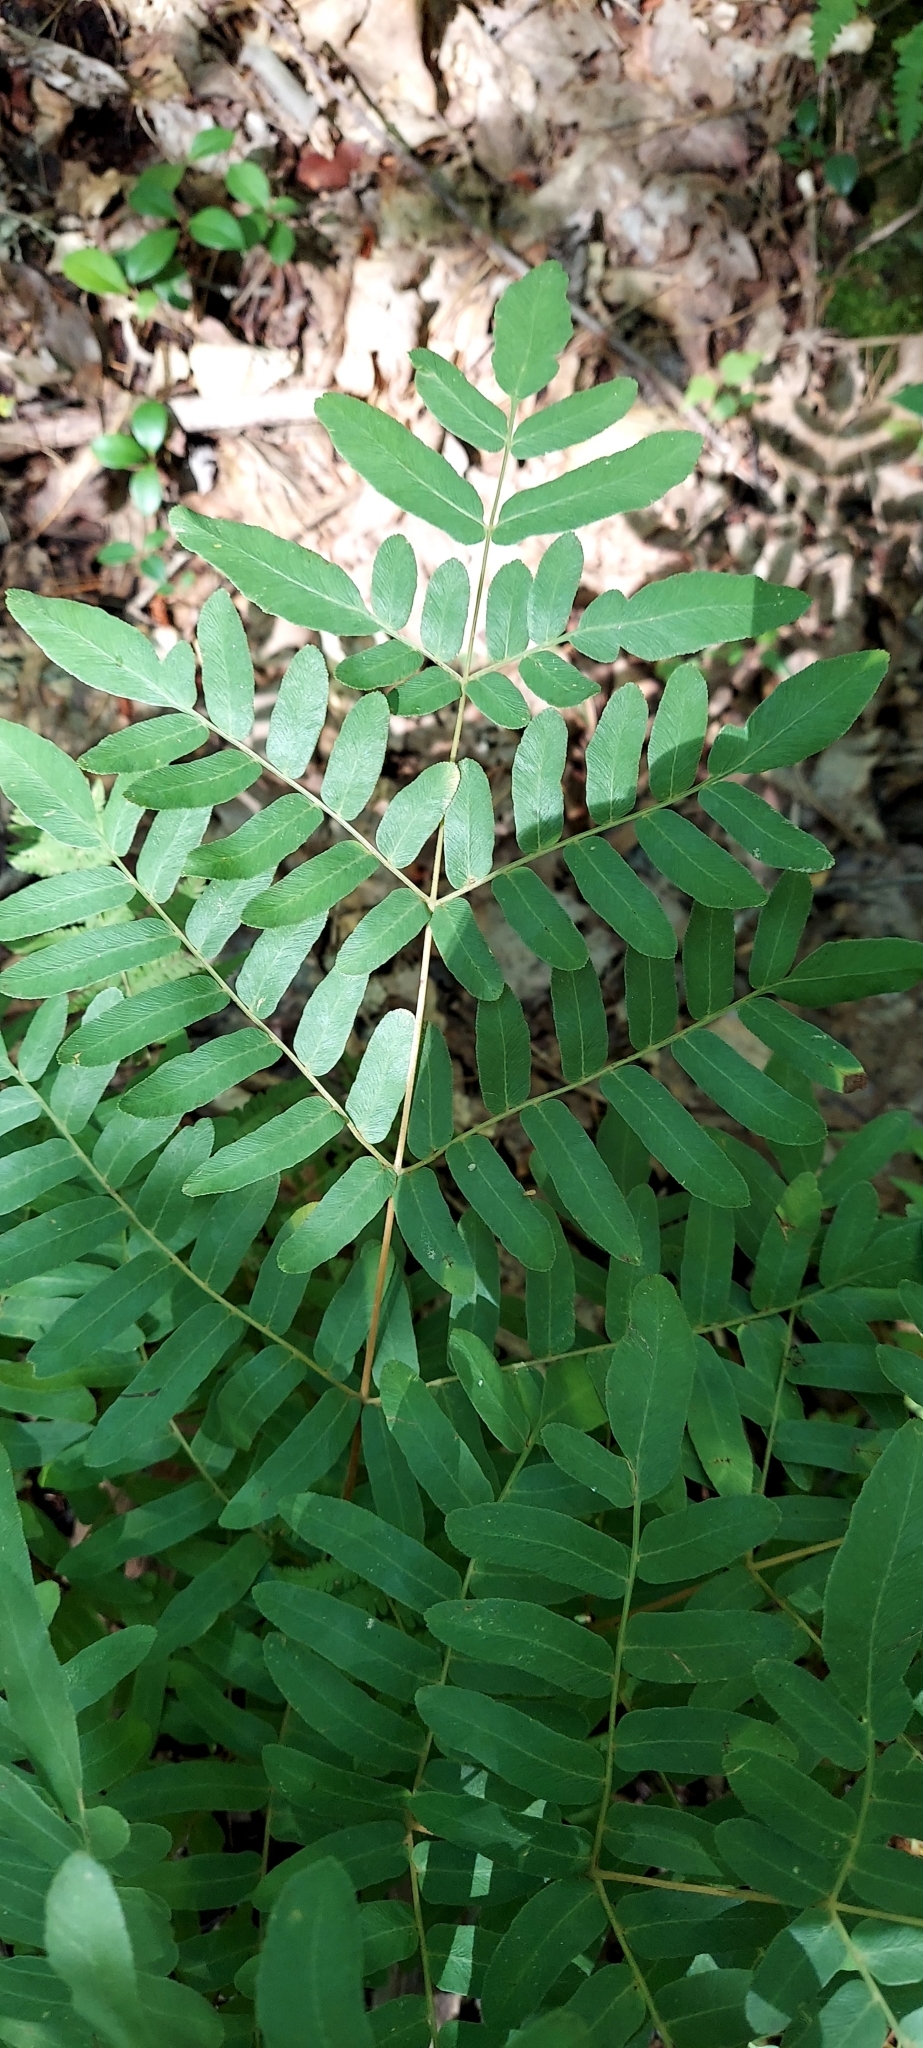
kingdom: Plantae
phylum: Tracheophyta
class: Polypodiopsida
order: Osmundales
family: Osmundaceae
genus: Osmunda
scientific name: Osmunda spectabilis
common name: American royal fern
